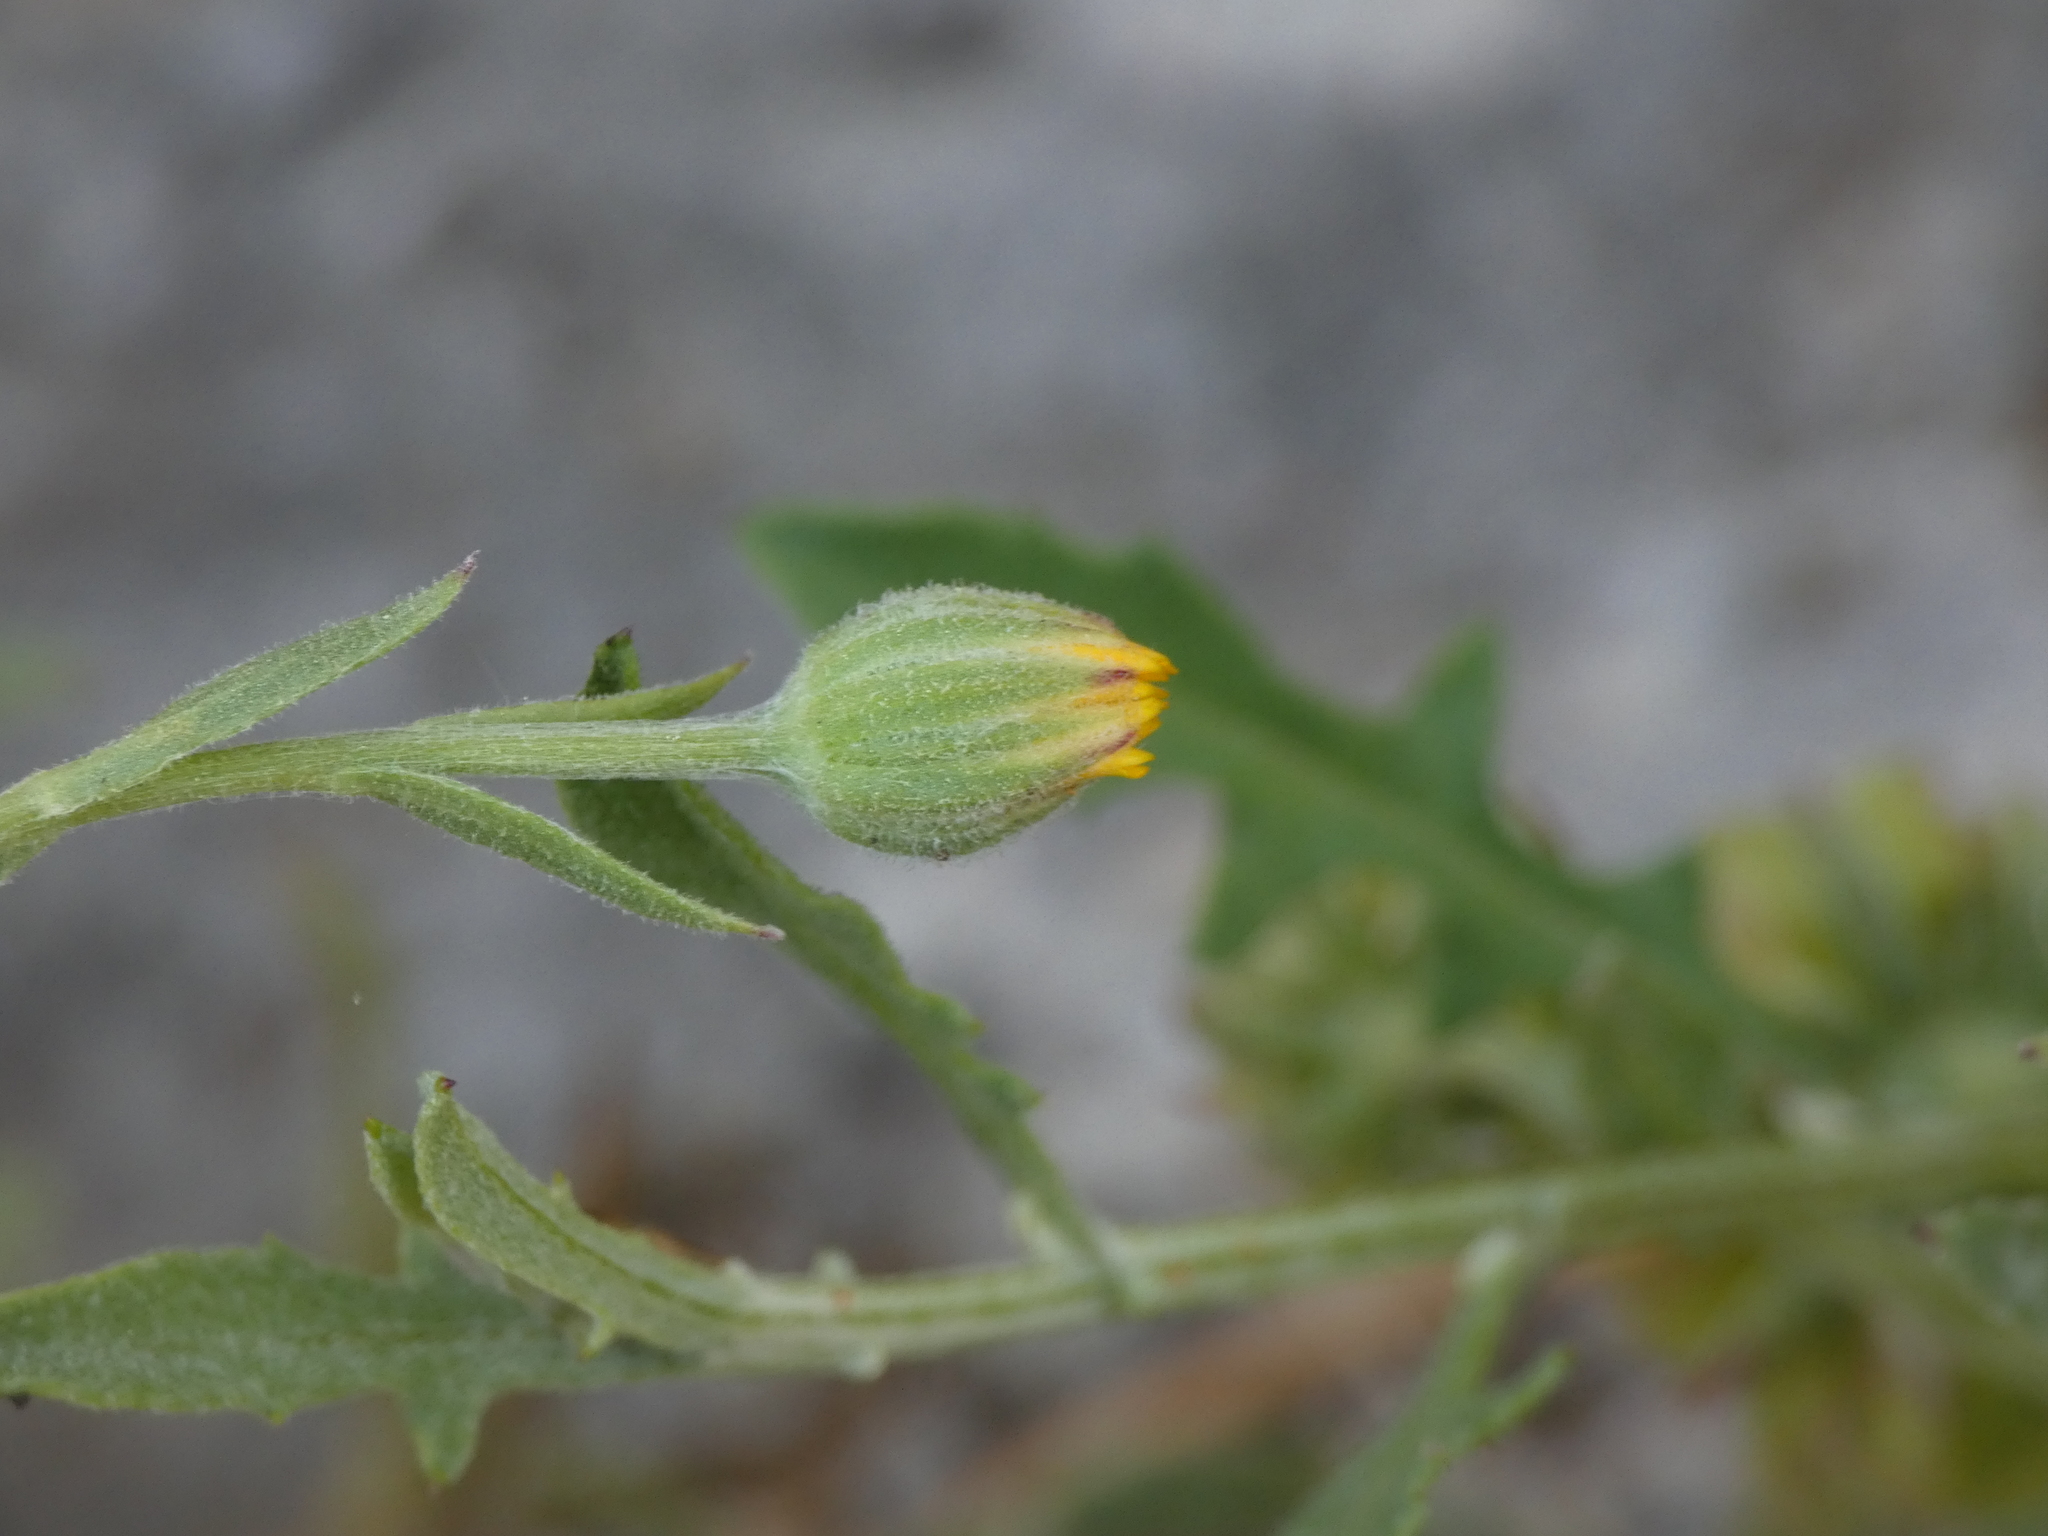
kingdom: Plantae
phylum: Tracheophyta
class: Magnoliopsida
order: Asterales
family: Asteraceae
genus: Calendula
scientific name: Calendula arvensis
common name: Field marigold
